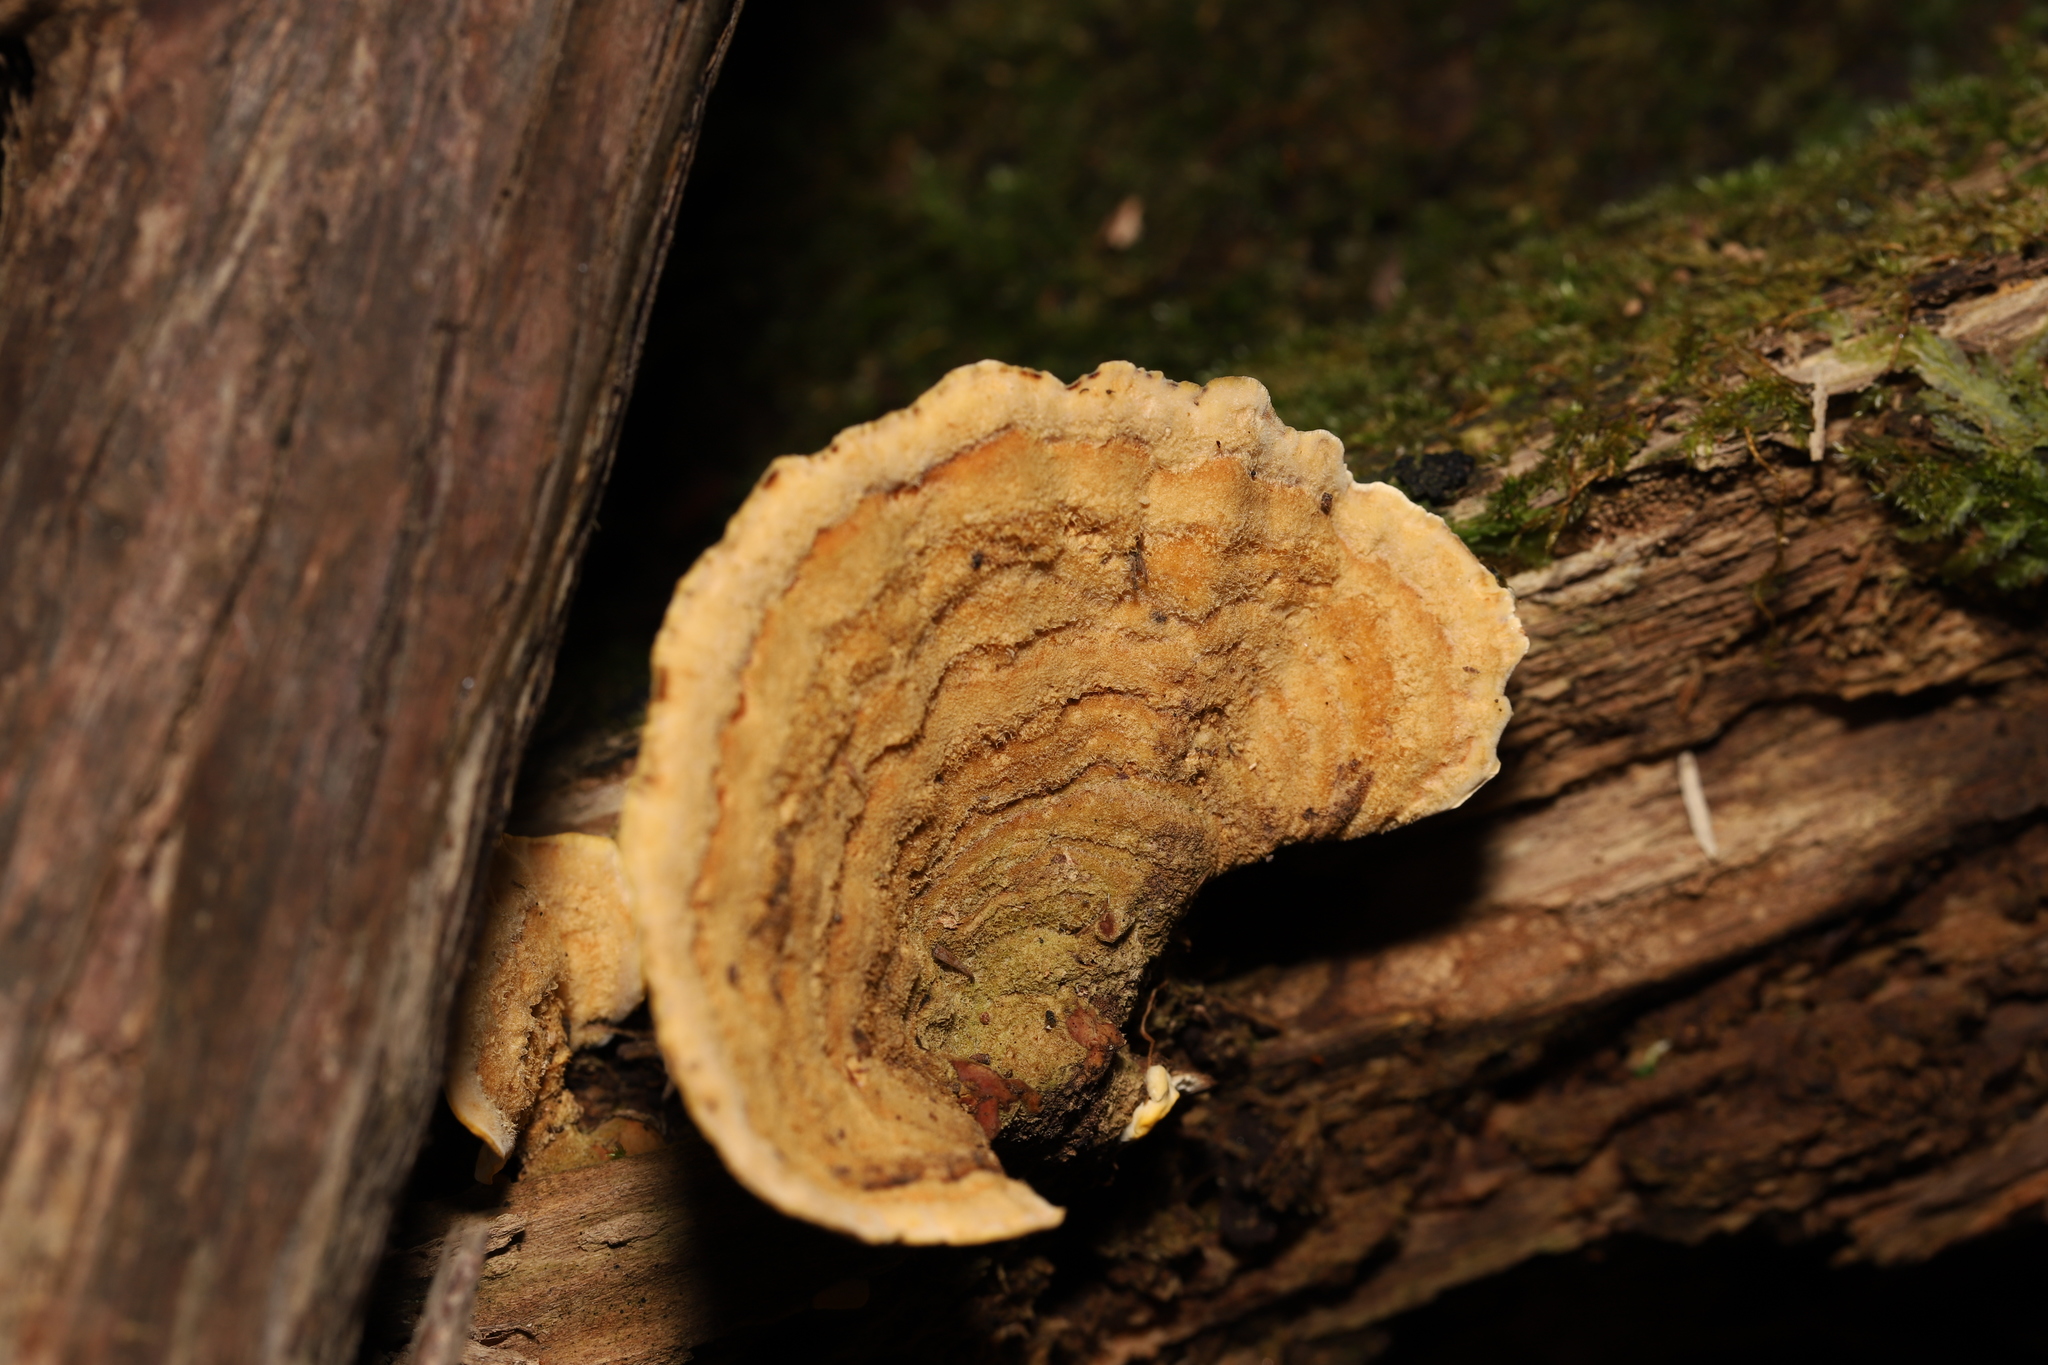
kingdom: Fungi
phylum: Basidiomycota
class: Agaricomycetes
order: Russulales
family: Stereaceae
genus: Stereum
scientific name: Stereum versicolor
